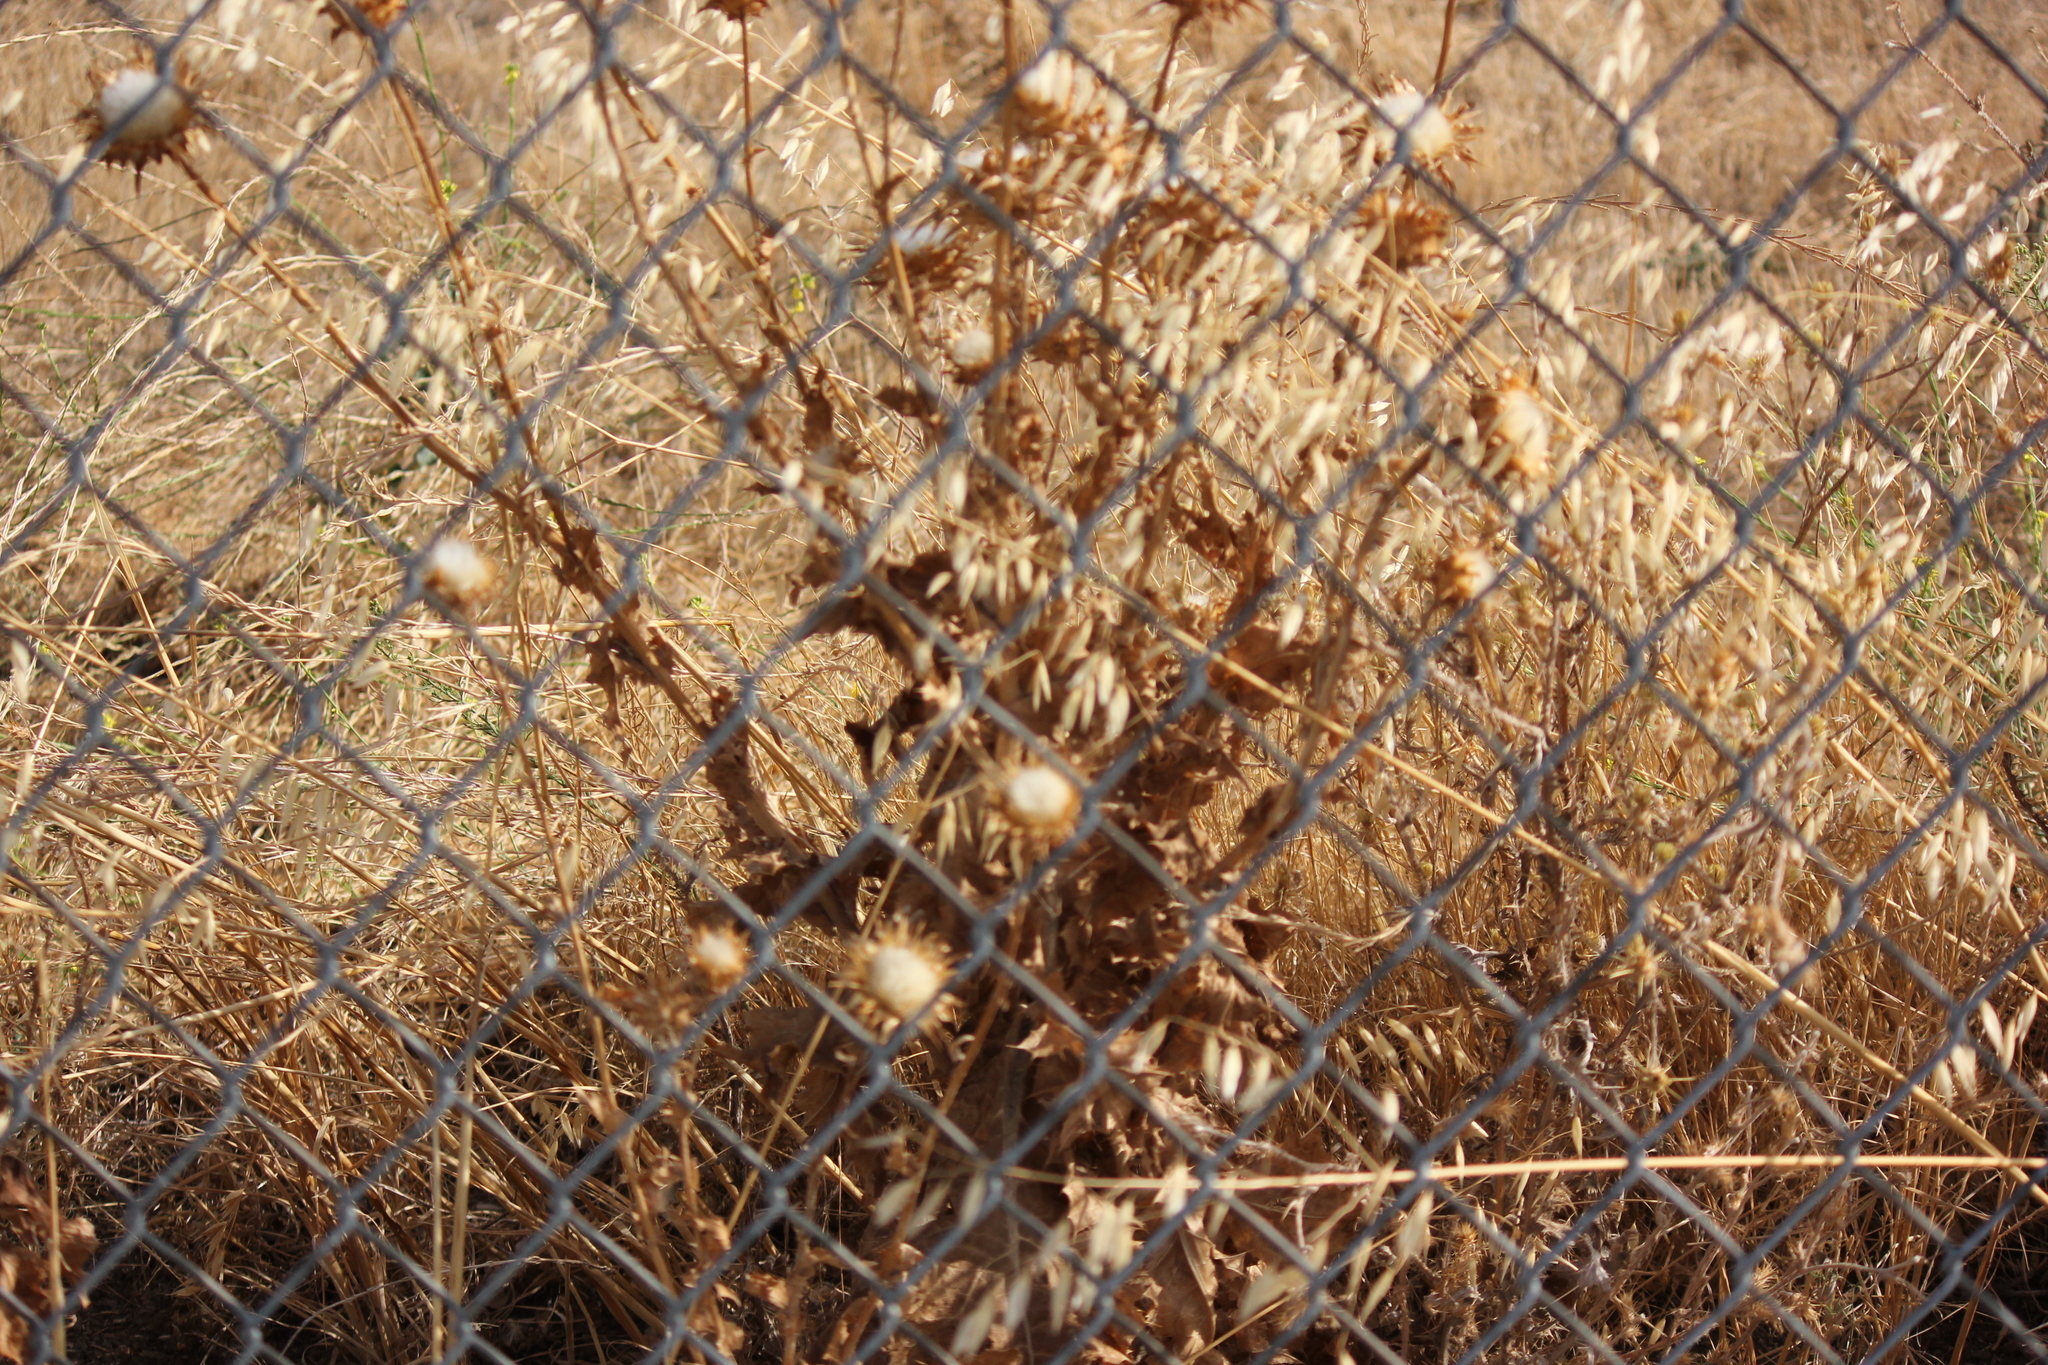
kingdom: Plantae
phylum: Tracheophyta
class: Magnoliopsida
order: Asterales
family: Asteraceae
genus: Silybum
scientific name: Silybum marianum
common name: Milk thistle
